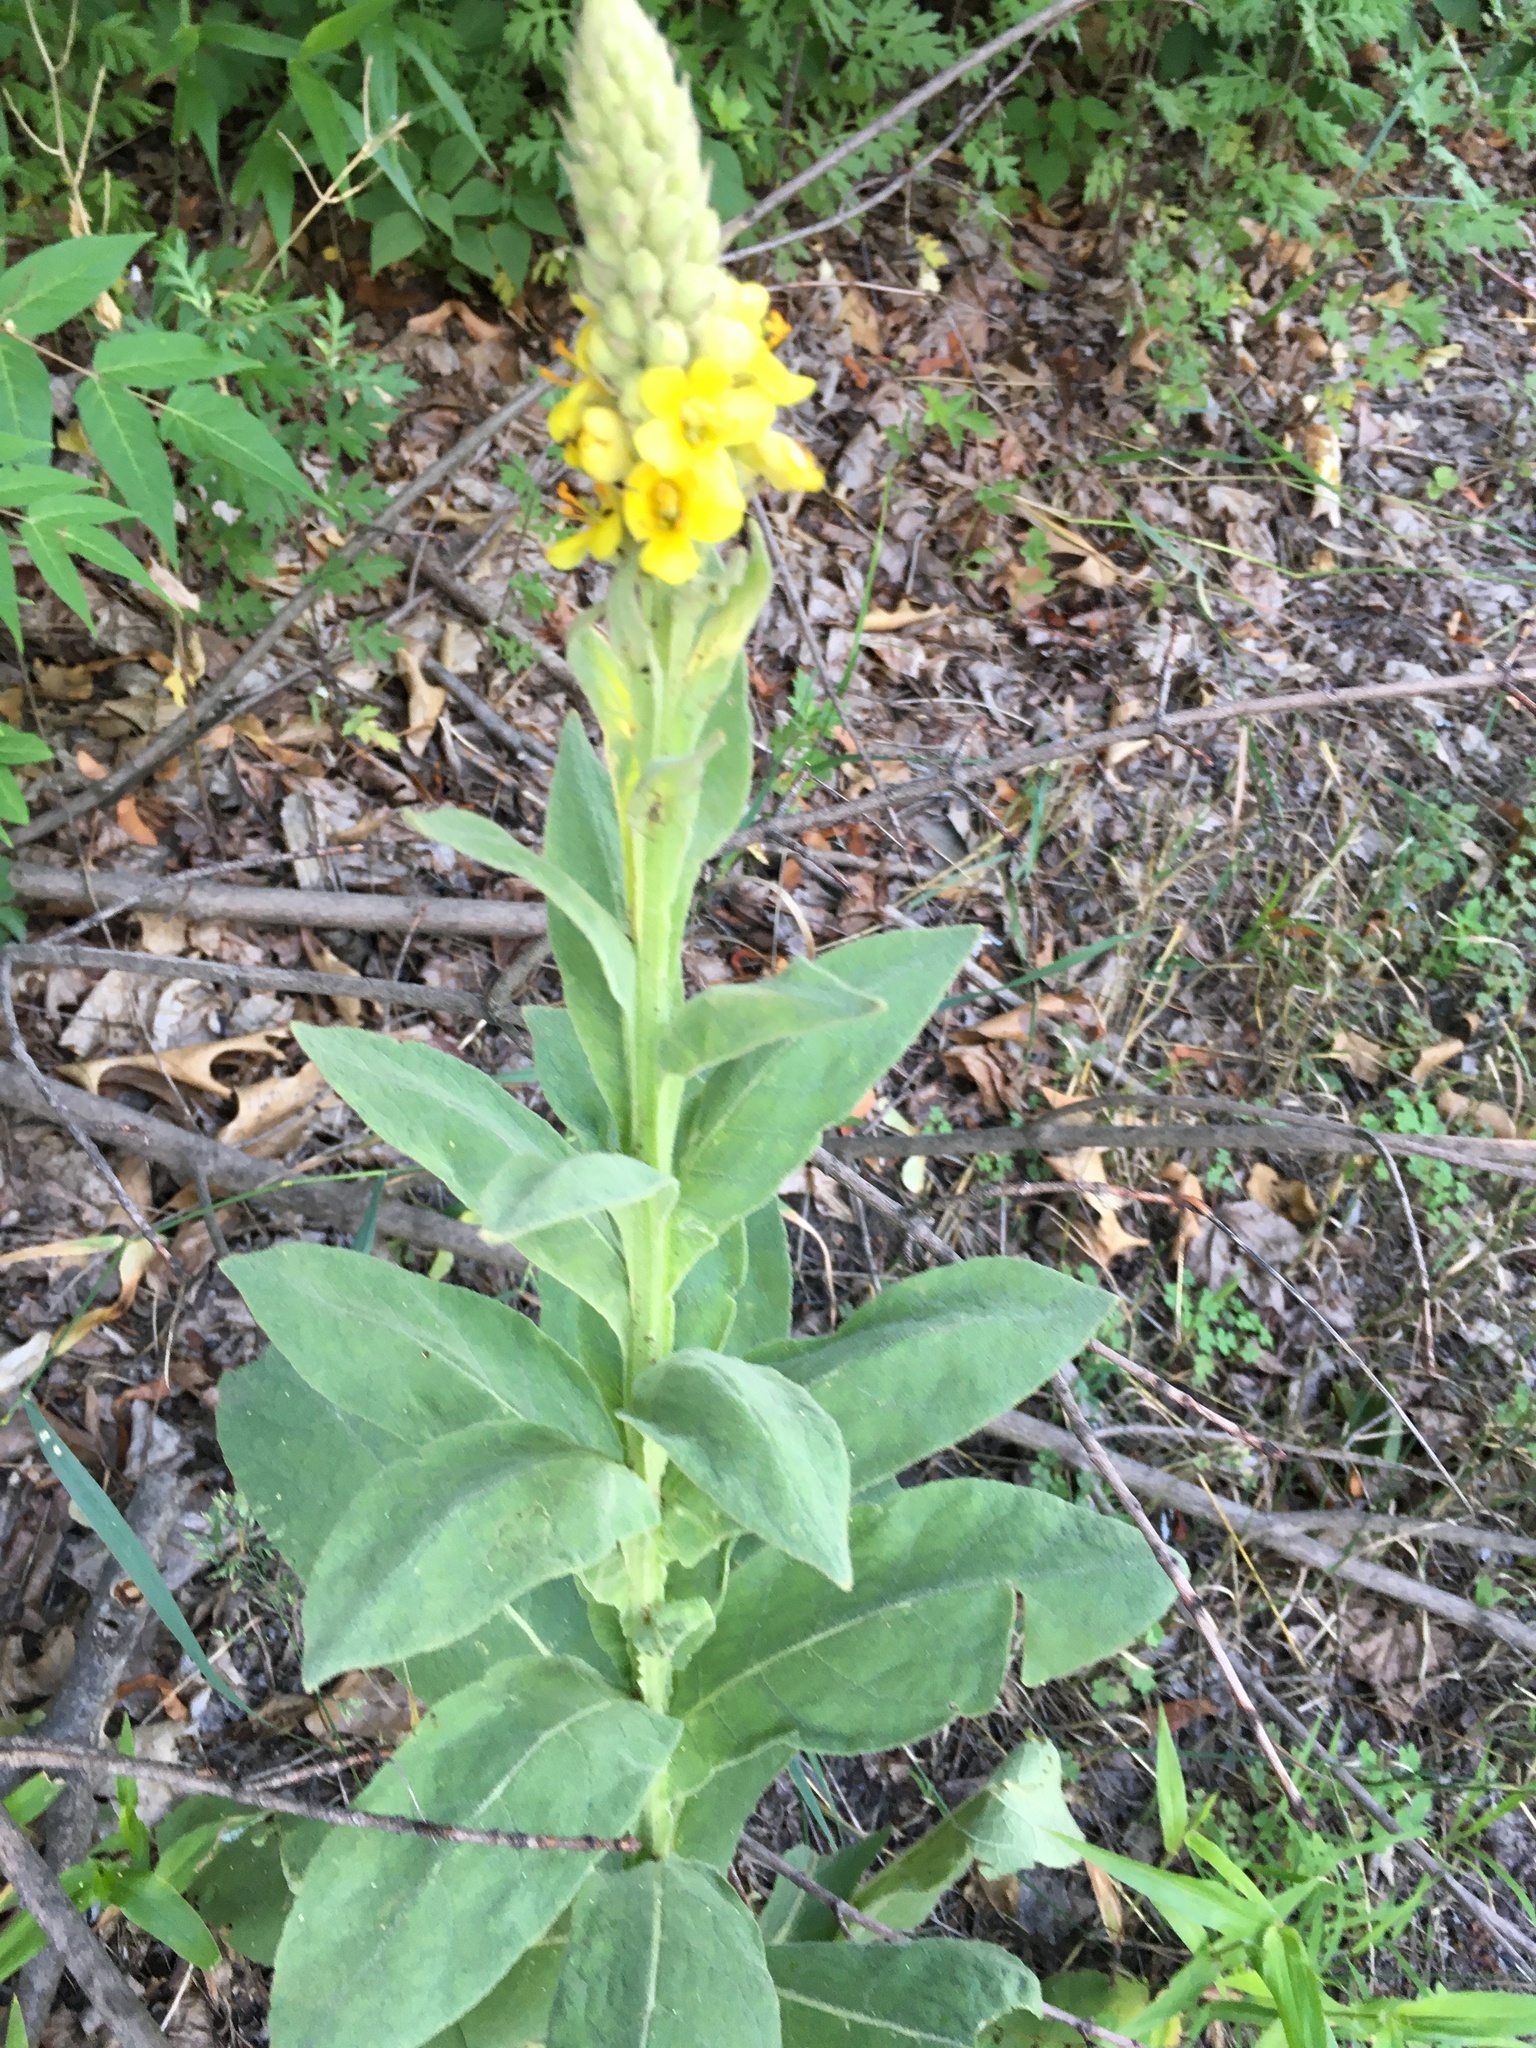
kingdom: Plantae
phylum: Tracheophyta
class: Magnoliopsida
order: Lamiales
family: Scrophulariaceae
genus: Verbascum
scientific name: Verbascum thapsus
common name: Common mullein
